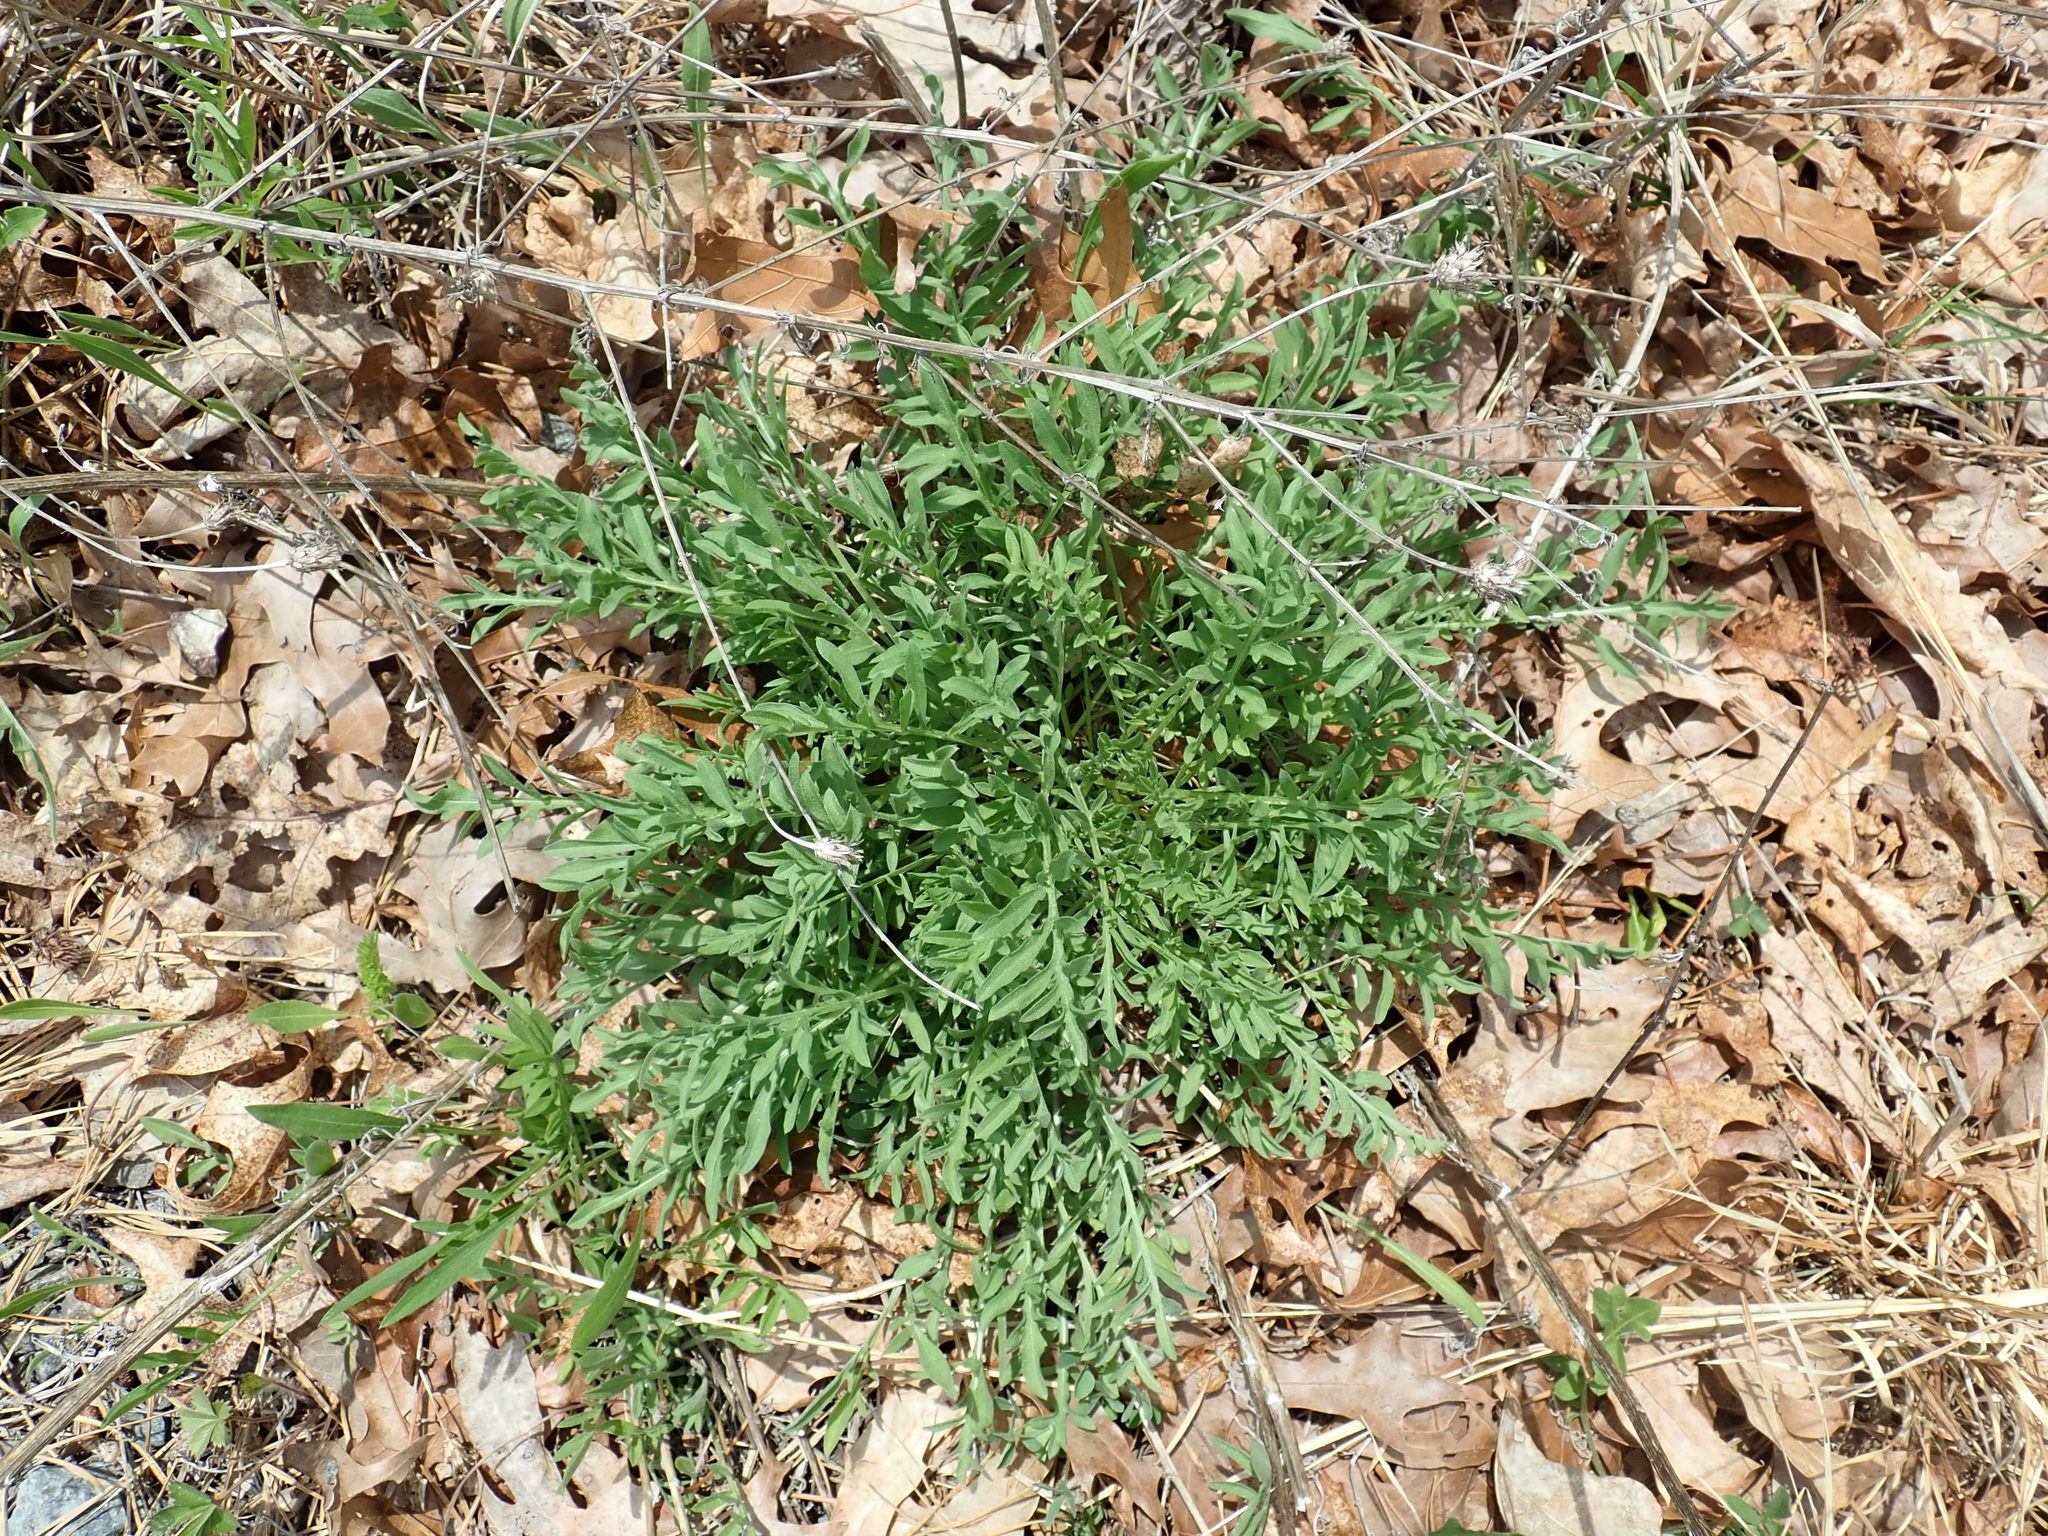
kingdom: Plantae
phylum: Tracheophyta
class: Magnoliopsida
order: Asterales
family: Asteraceae
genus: Centaurea
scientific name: Centaurea
